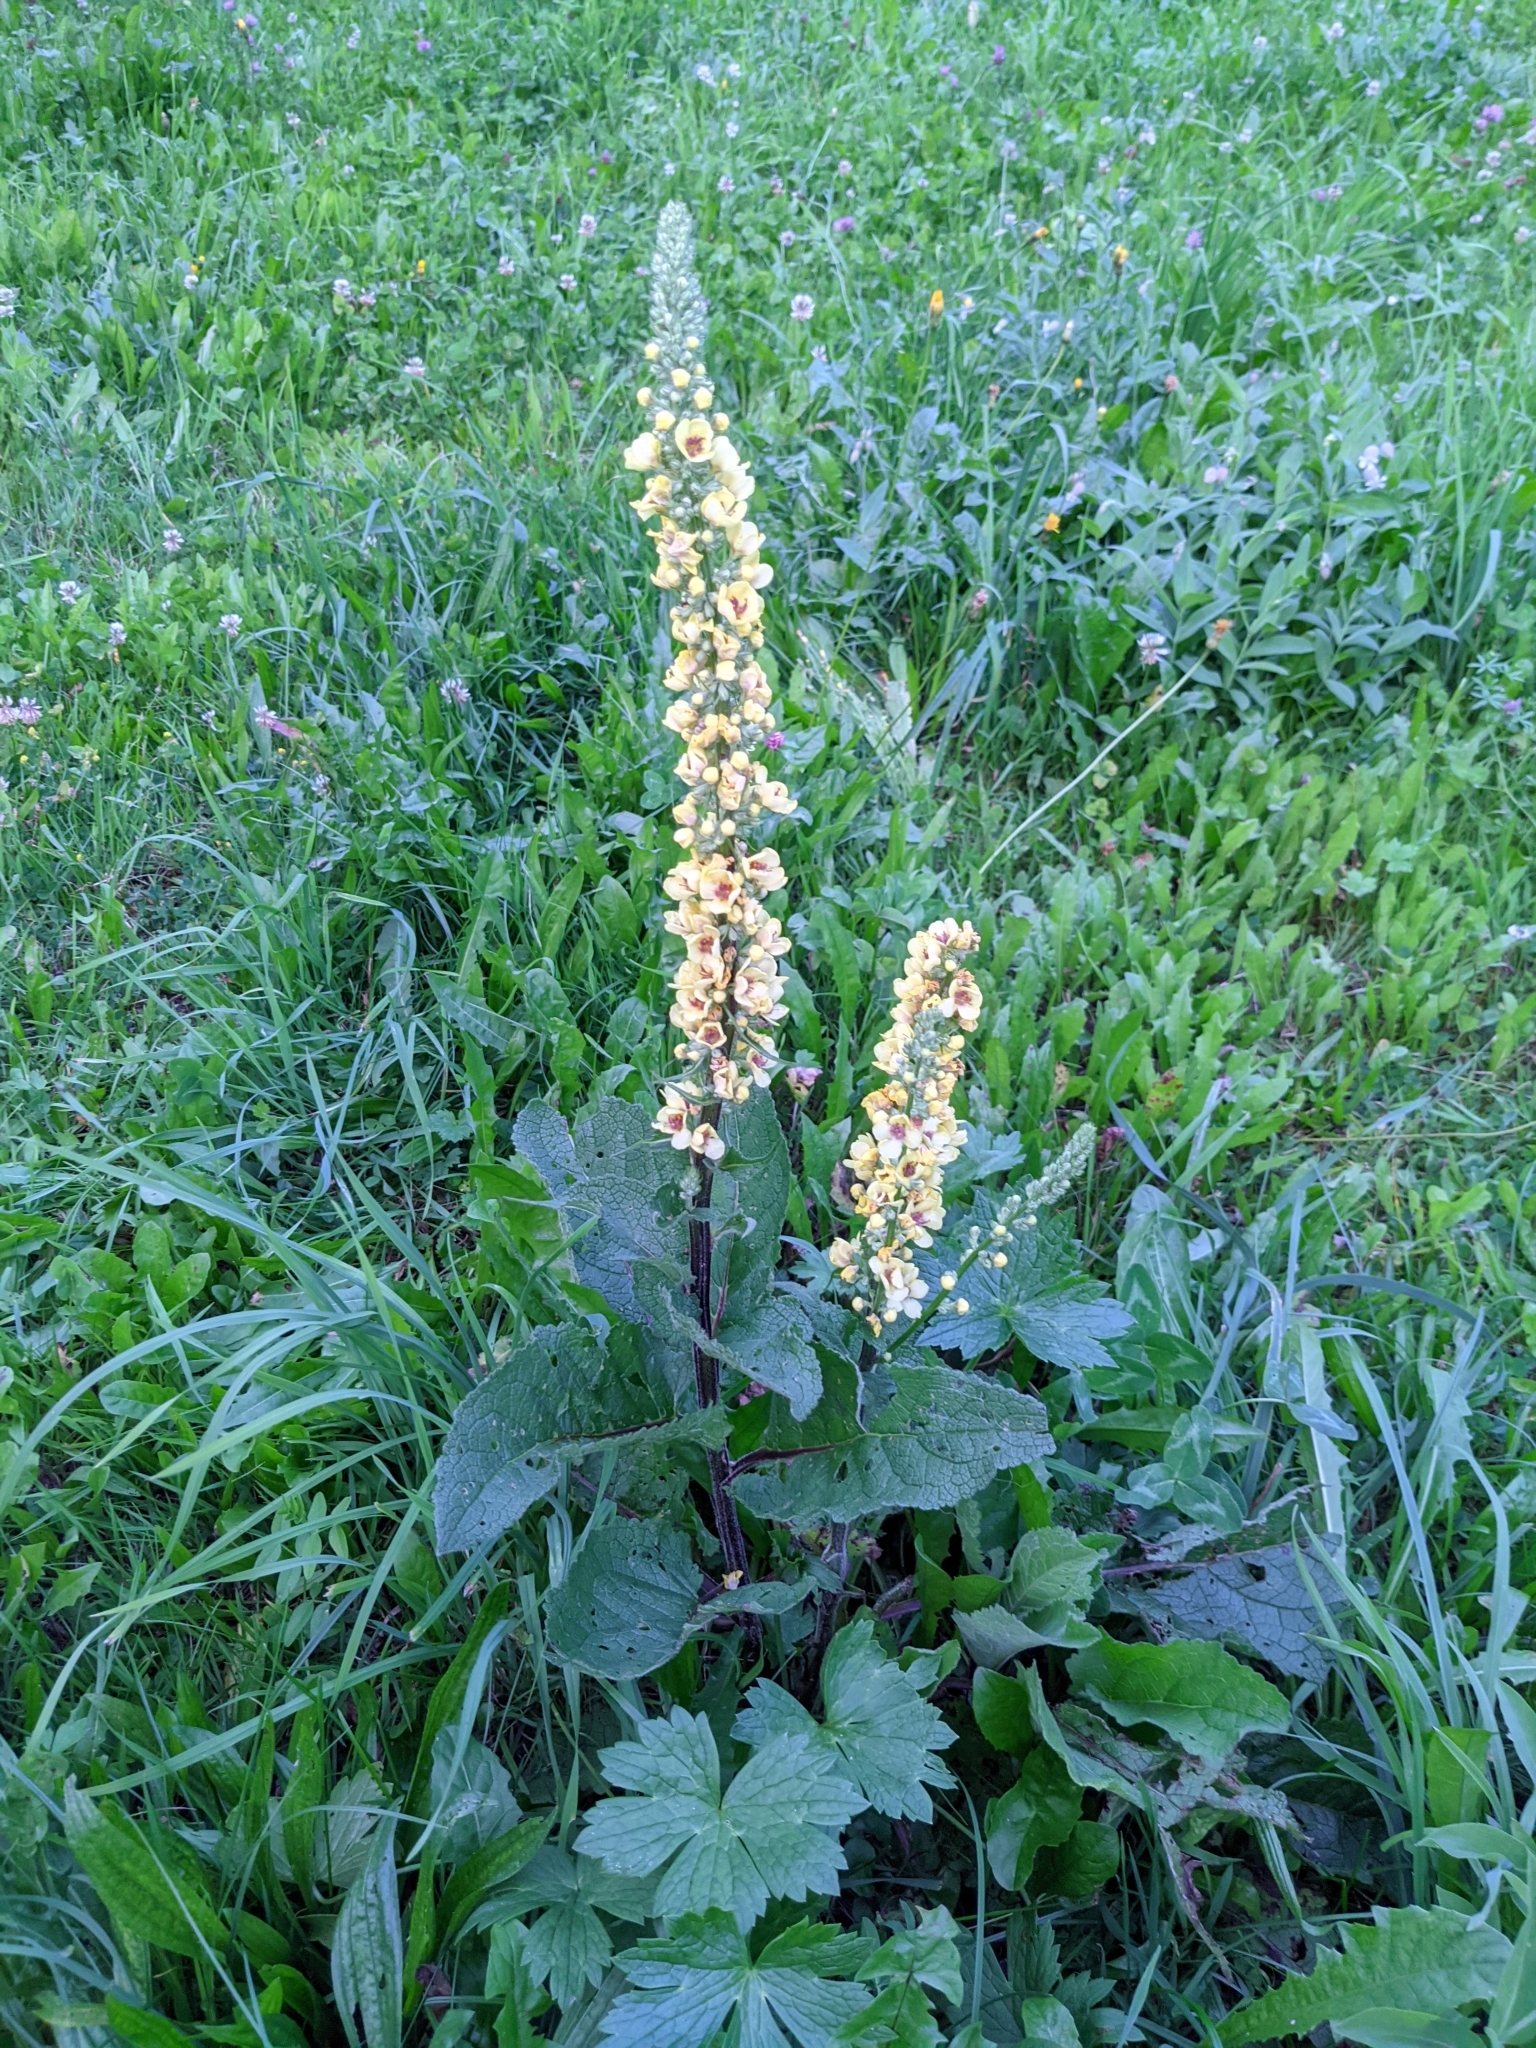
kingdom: Plantae
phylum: Tracheophyta
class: Magnoliopsida
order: Lamiales
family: Scrophulariaceae
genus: Verbascum
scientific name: Verbascum nigrum
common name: Dark mullein
